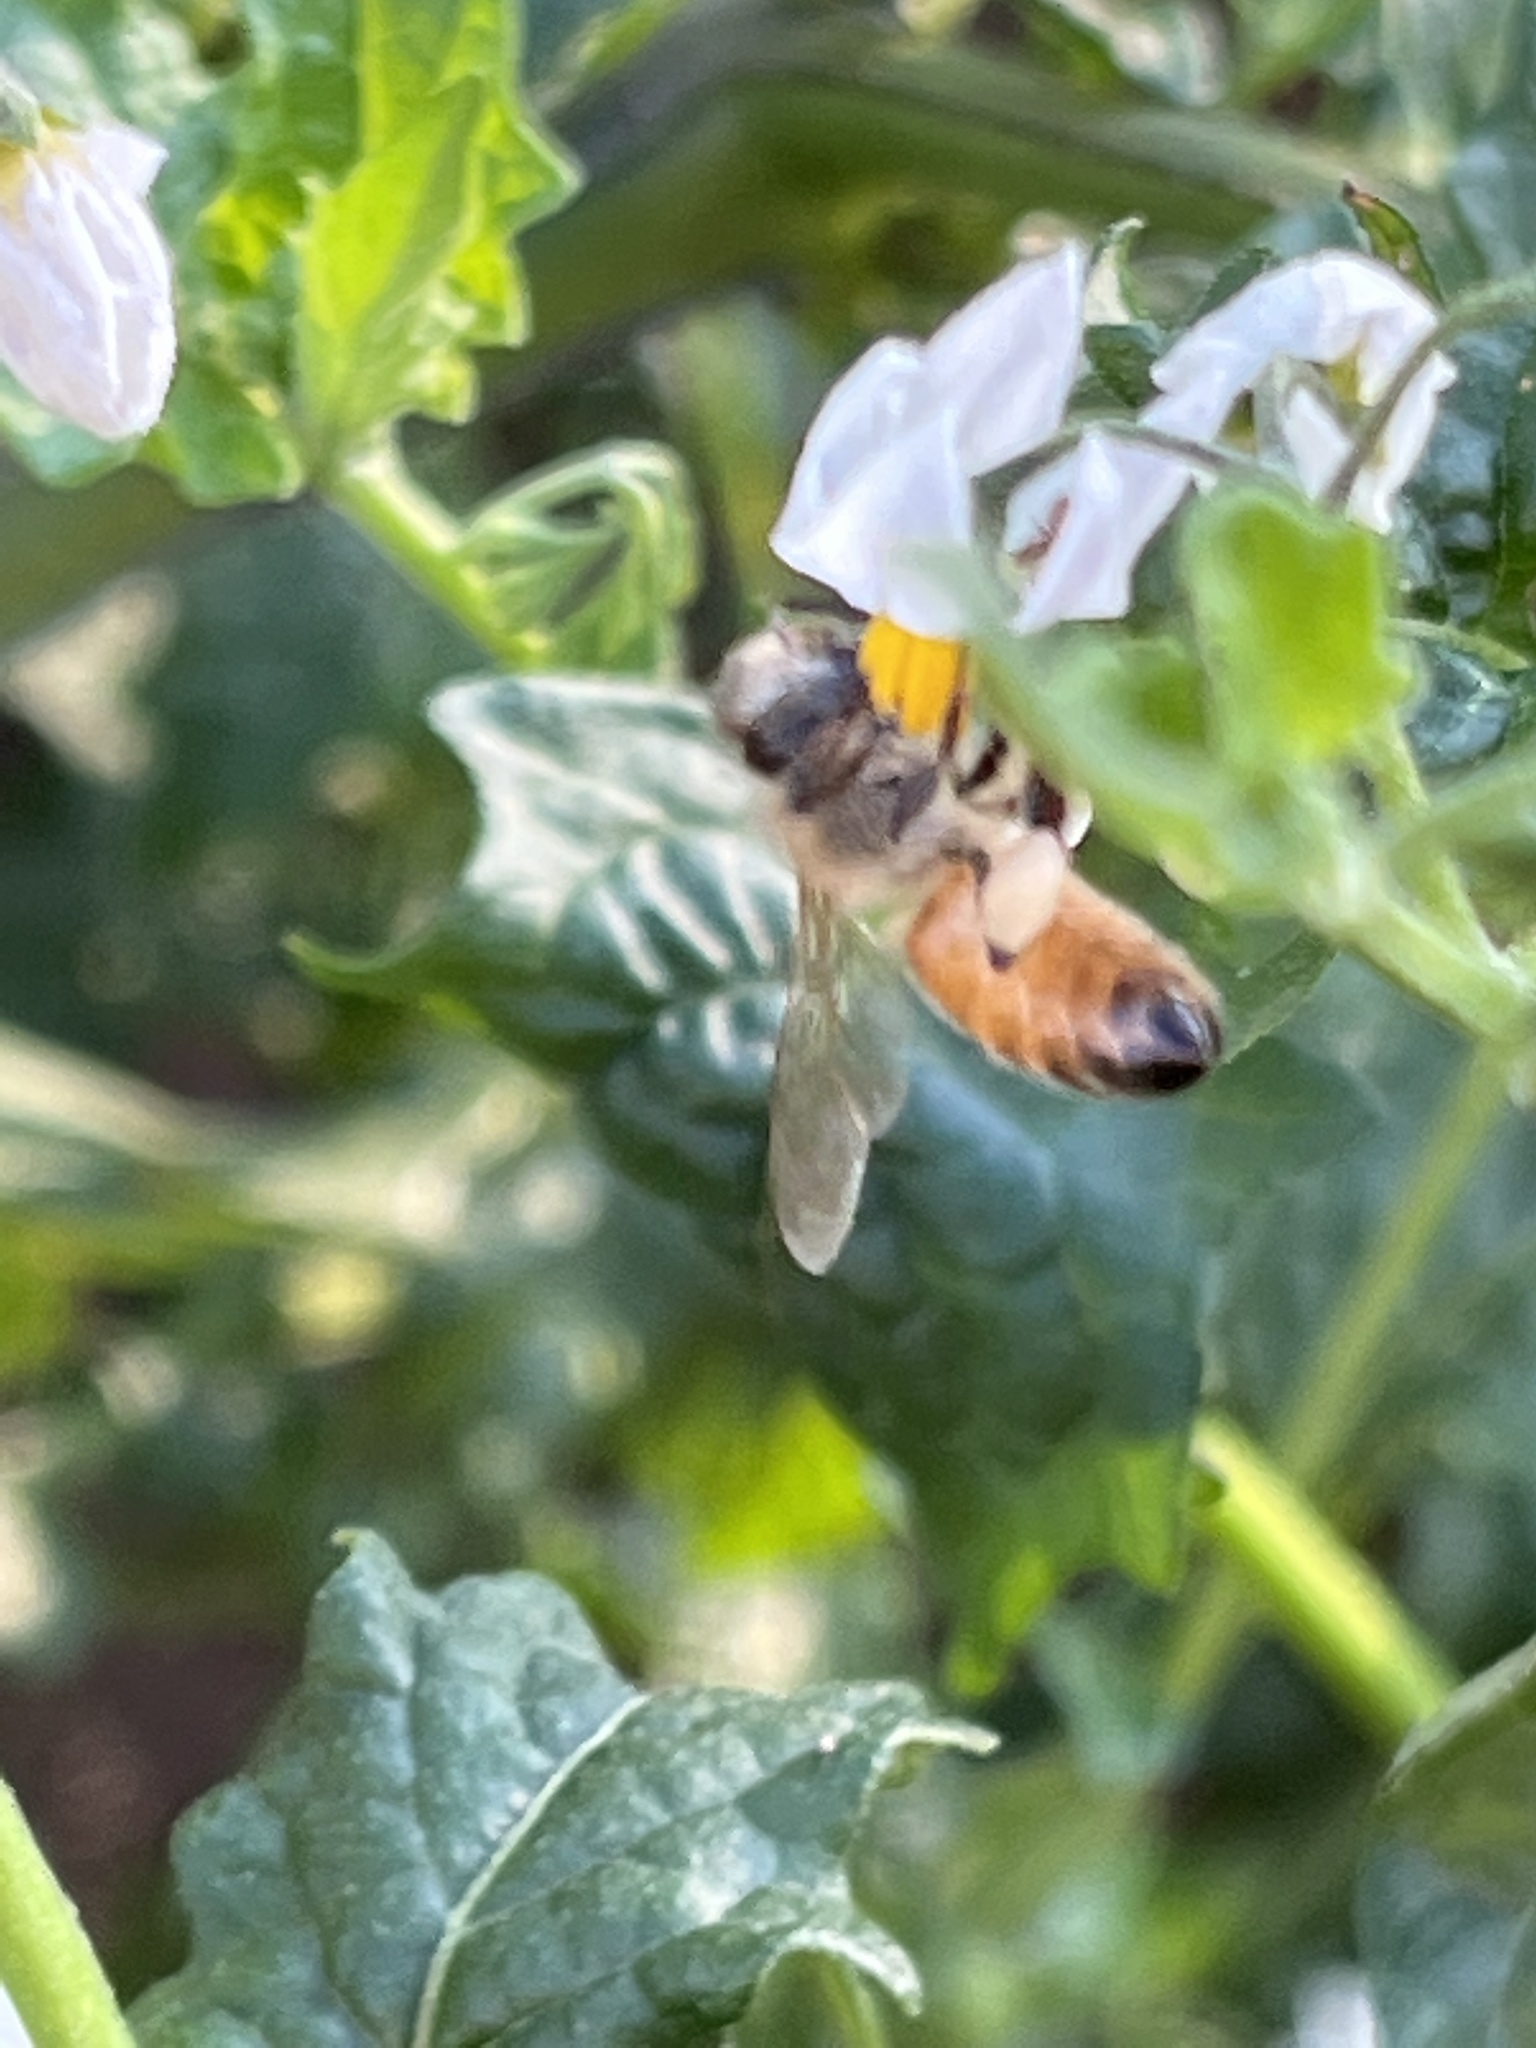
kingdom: Animalia
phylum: Arthropoda
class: Insecta
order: Hymenoptera
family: Apidae
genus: Apis
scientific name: Apis mellifera
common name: Honey bee
